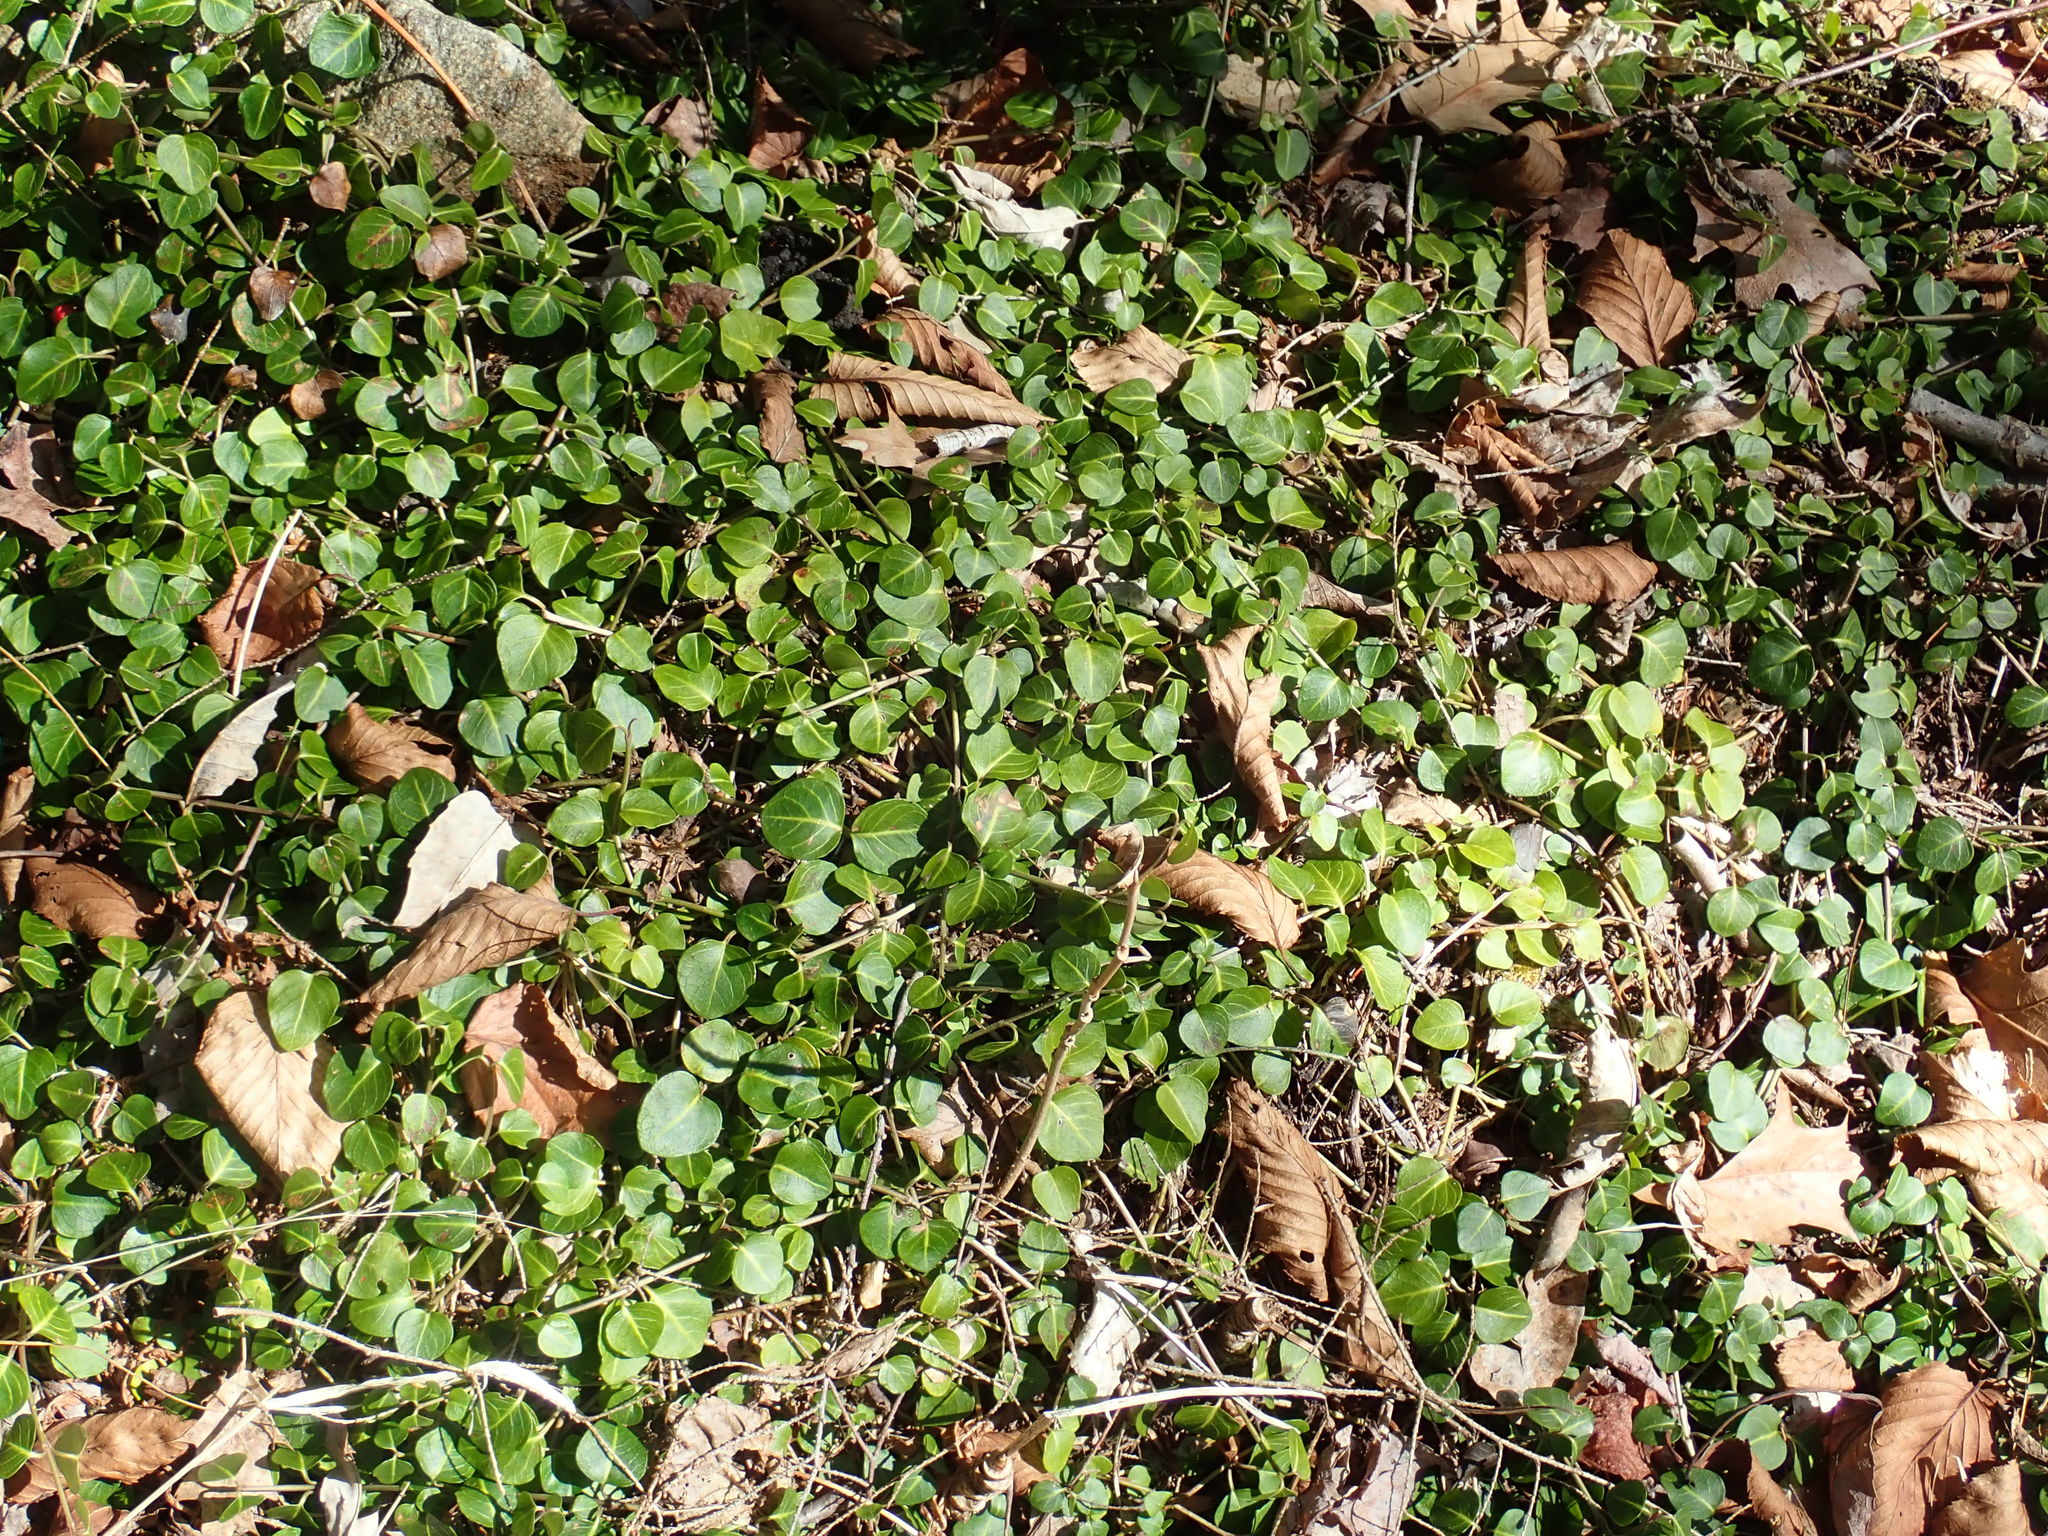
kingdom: Plantae
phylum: Tracheophyta
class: Magnoliopsida
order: Gentianales
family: Rubiaceae
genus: Mitchella
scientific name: Mitchella repens
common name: Partridge-berry
